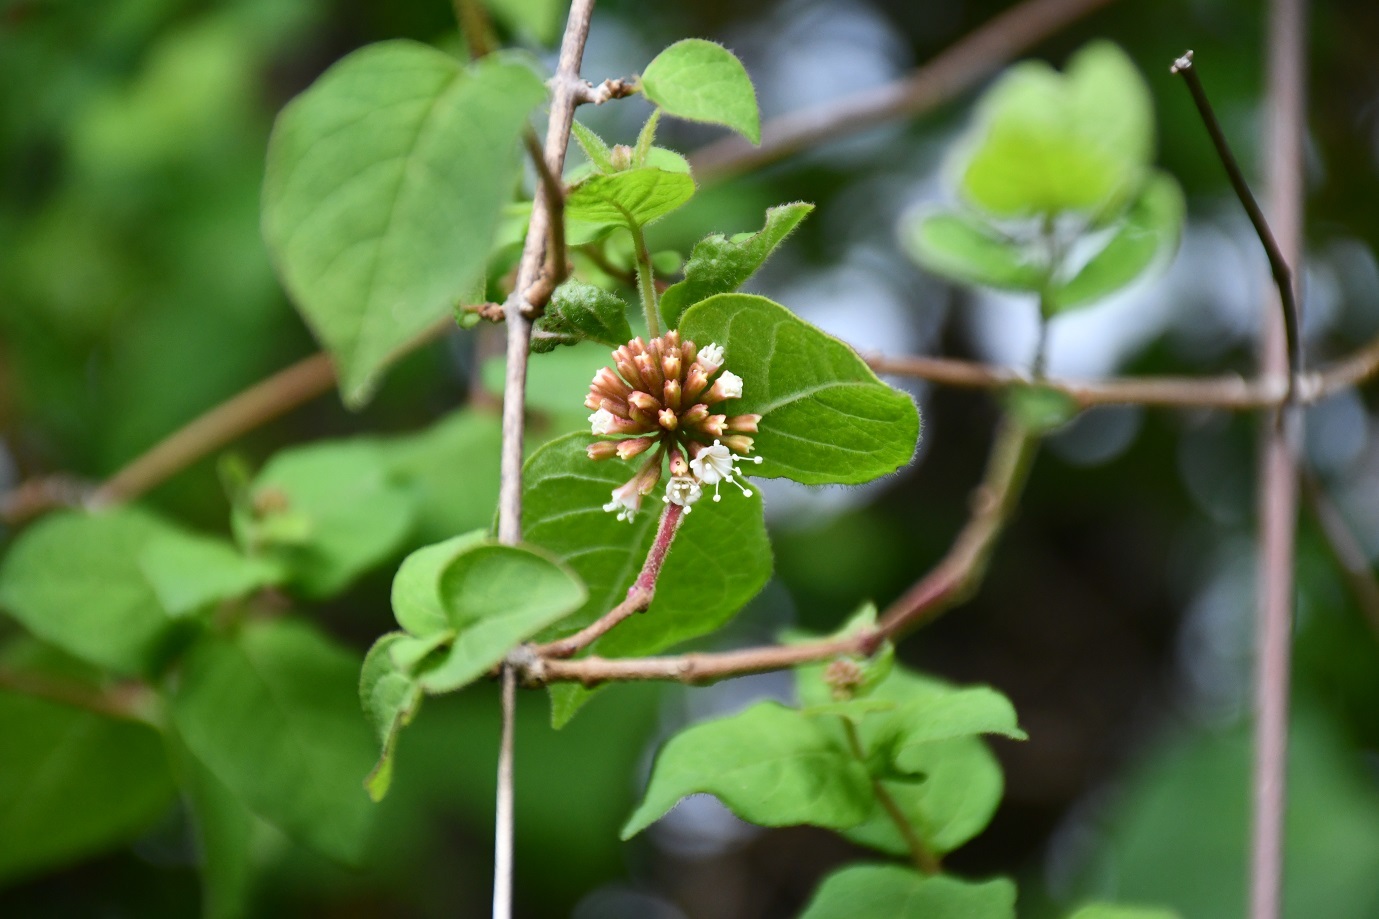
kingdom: Plantae
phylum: Tracheophyta
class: Magnoliopsida
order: Caryophyllales
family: Nyctaginaceae
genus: Pisoniella
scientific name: Pisoniella arborescens
